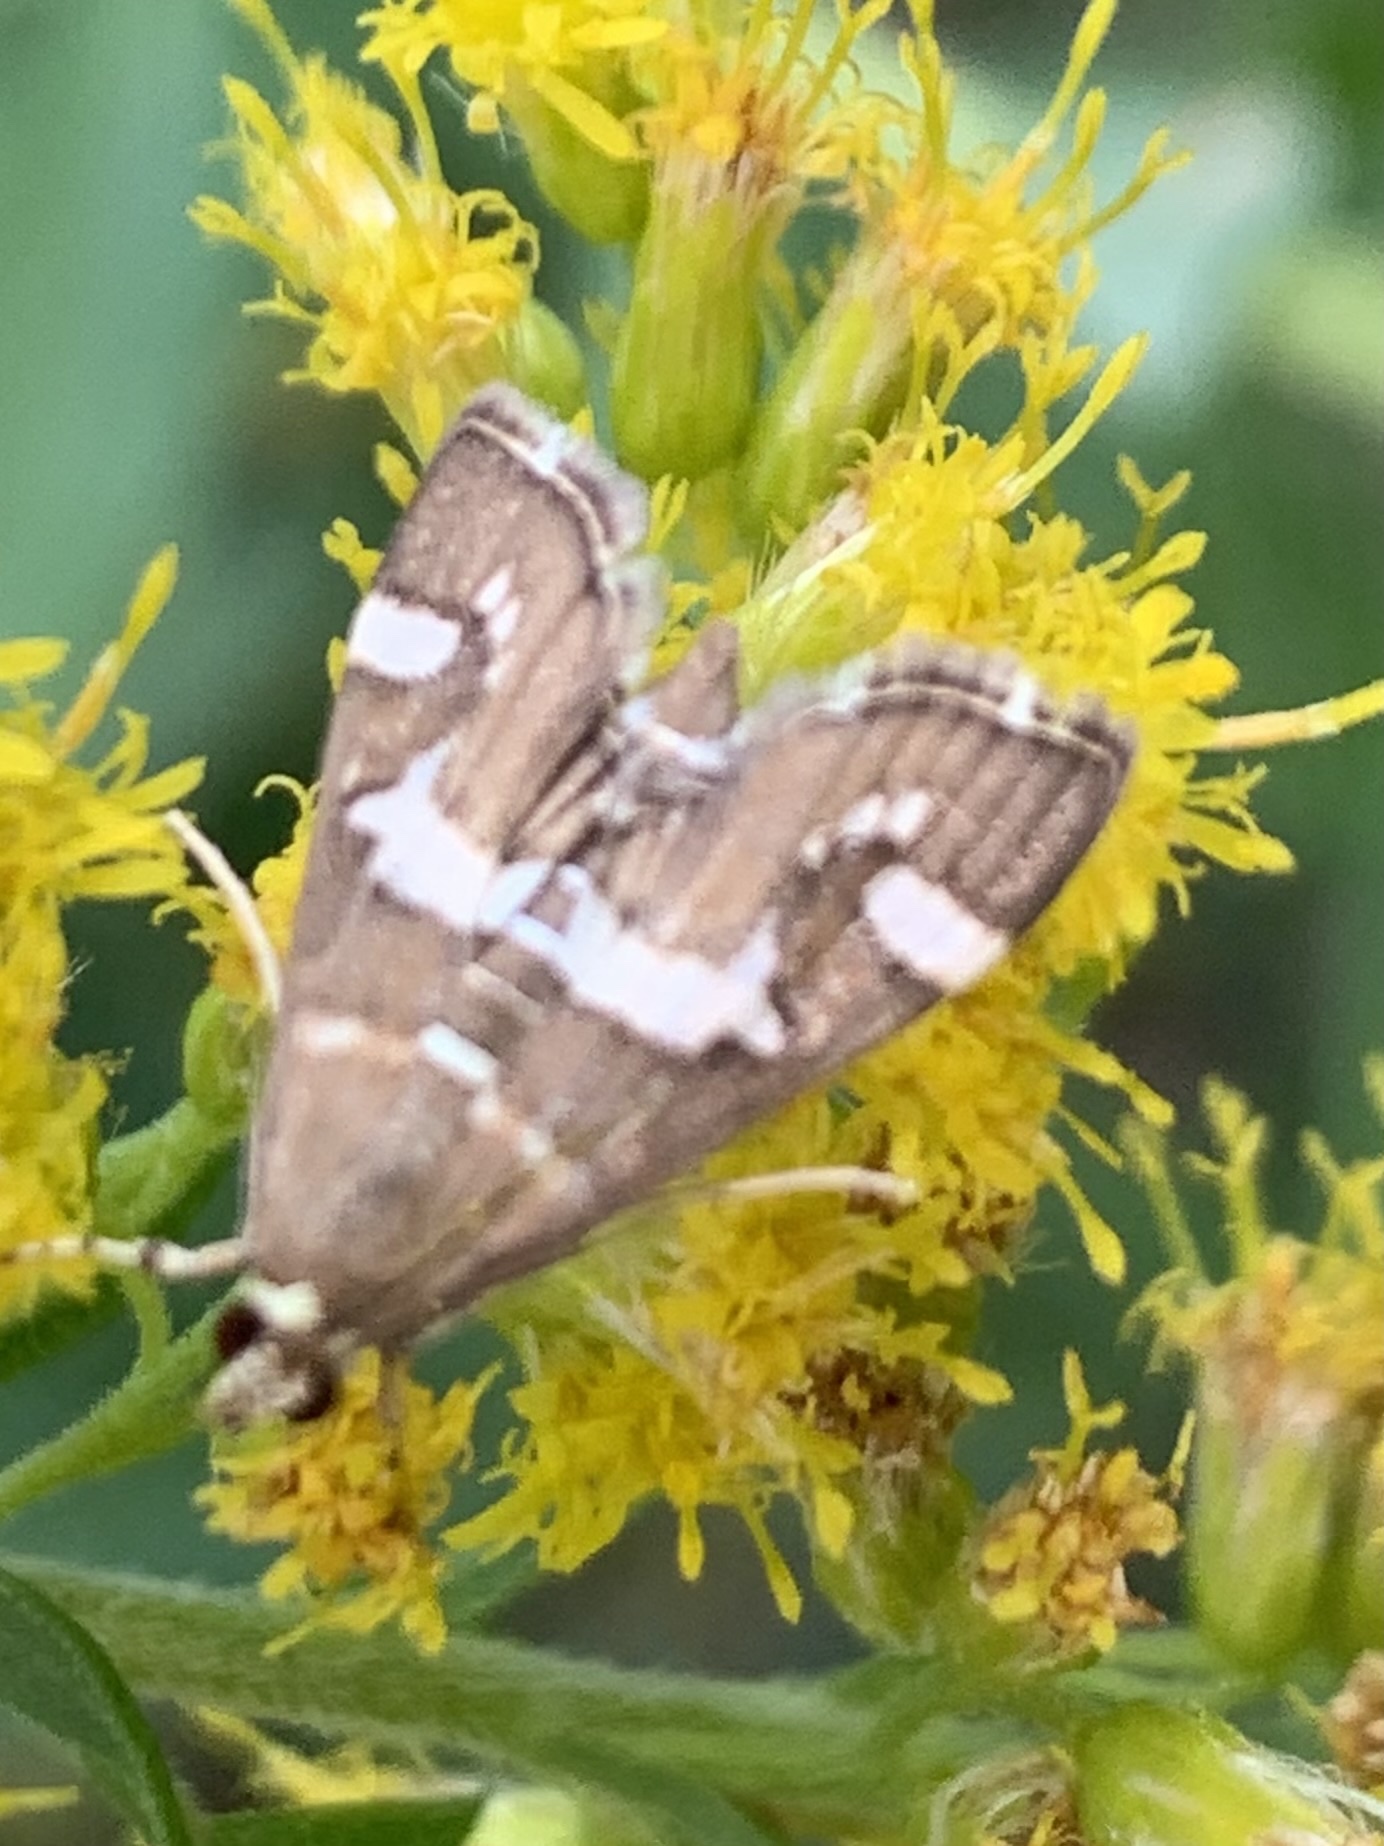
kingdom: Animalia
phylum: Arthropoda
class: Insecta
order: Lepidoptera
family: Crambidae
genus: Spoladea
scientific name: Spoladea recurvalis
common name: Beet webworm moth
